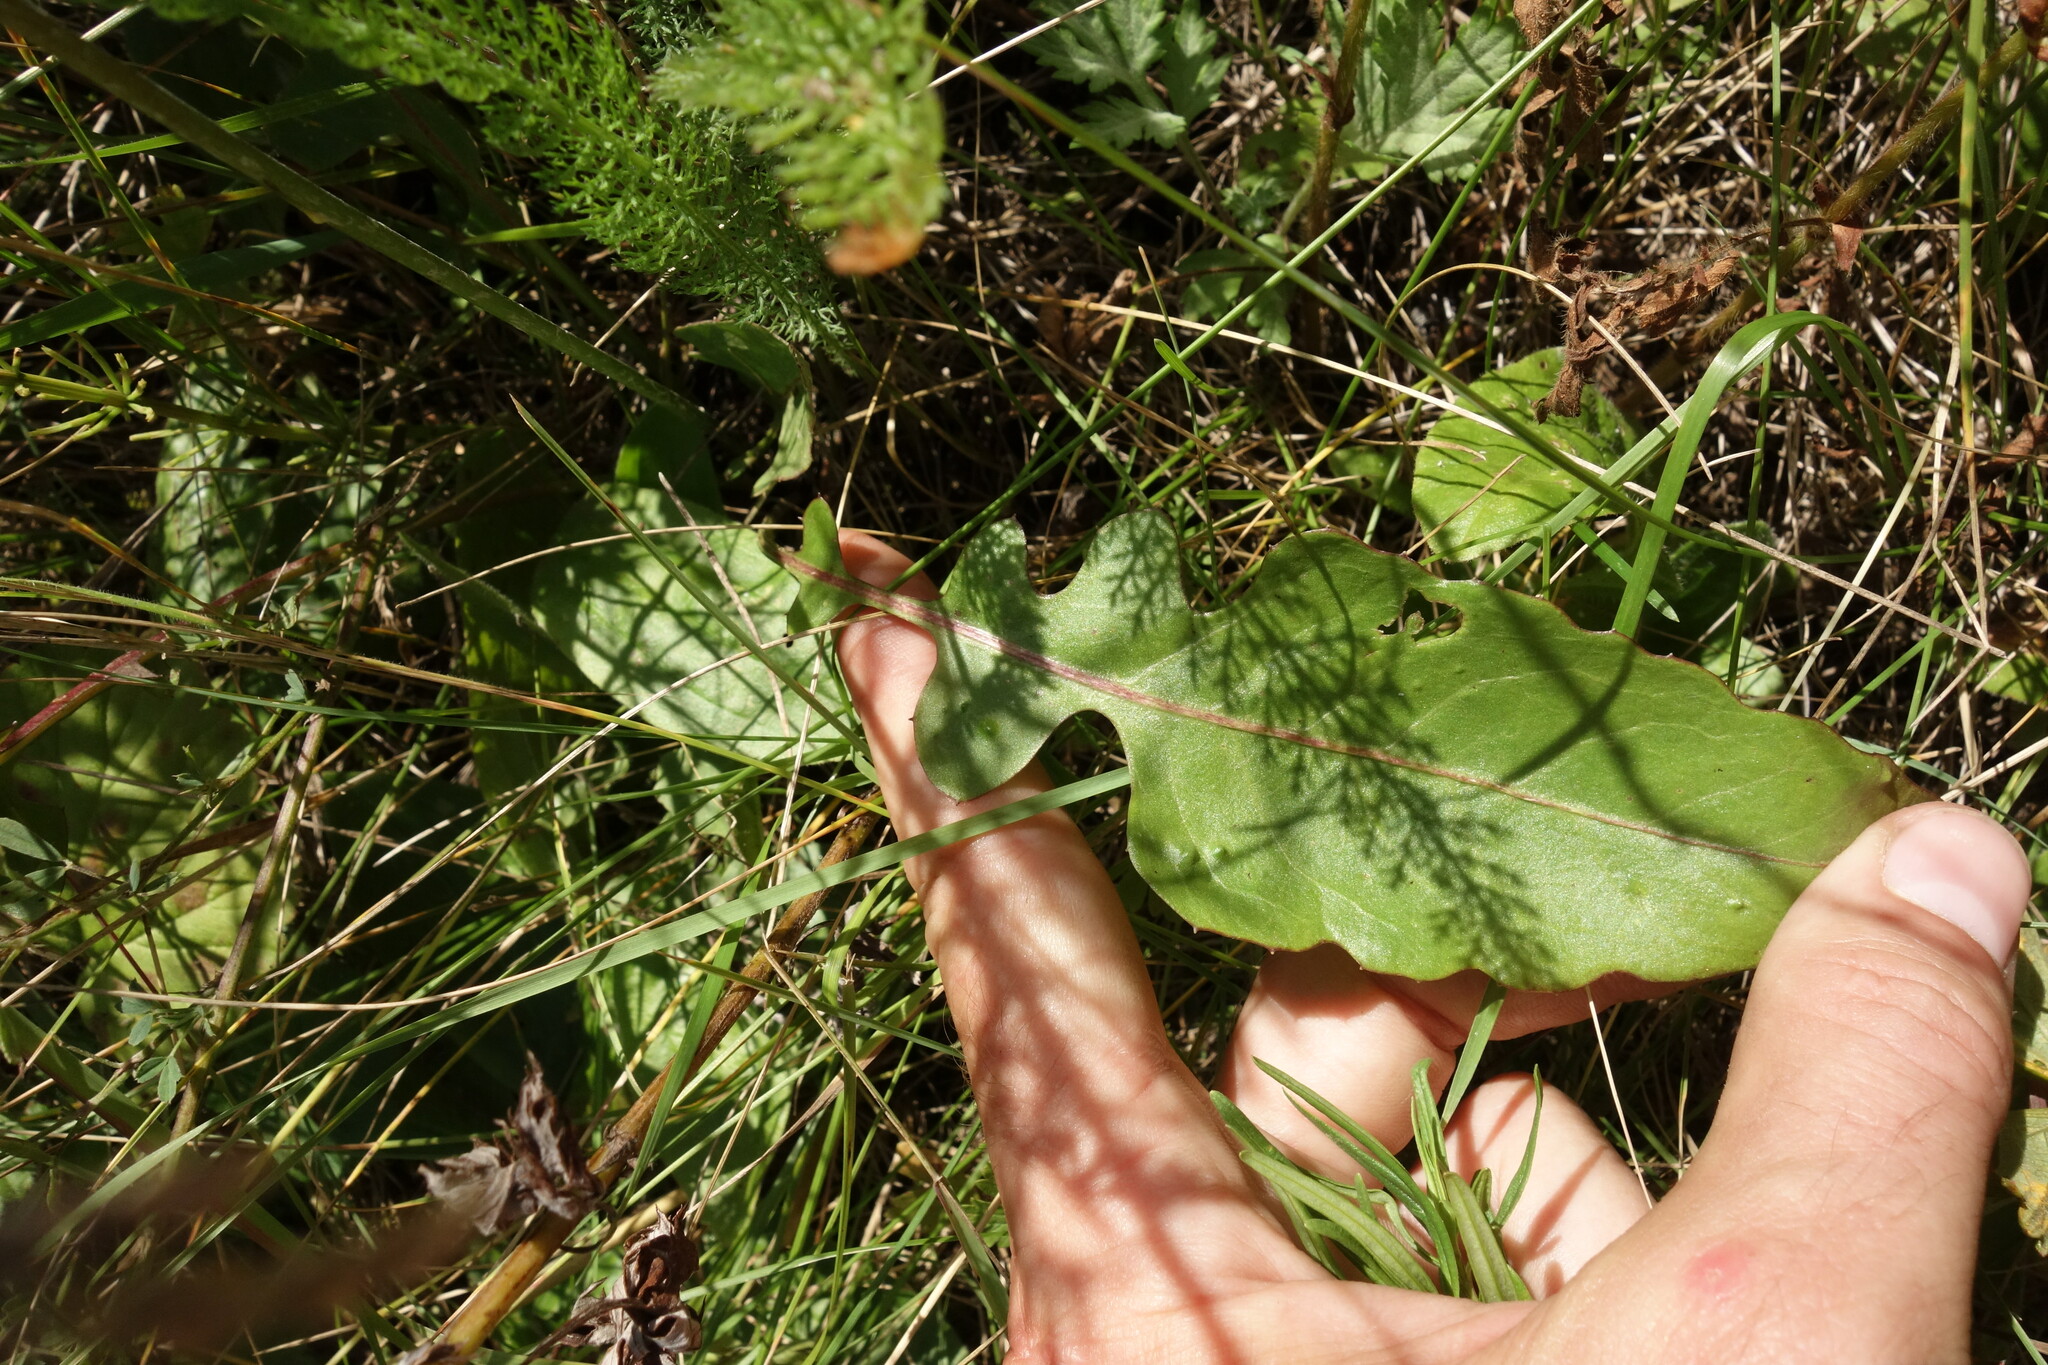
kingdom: Plantae
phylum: Tracheophyta
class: Magnoliopsida
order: Asterales
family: Asteraceae
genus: Leibnitzia
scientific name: Leibnitzia anandria
